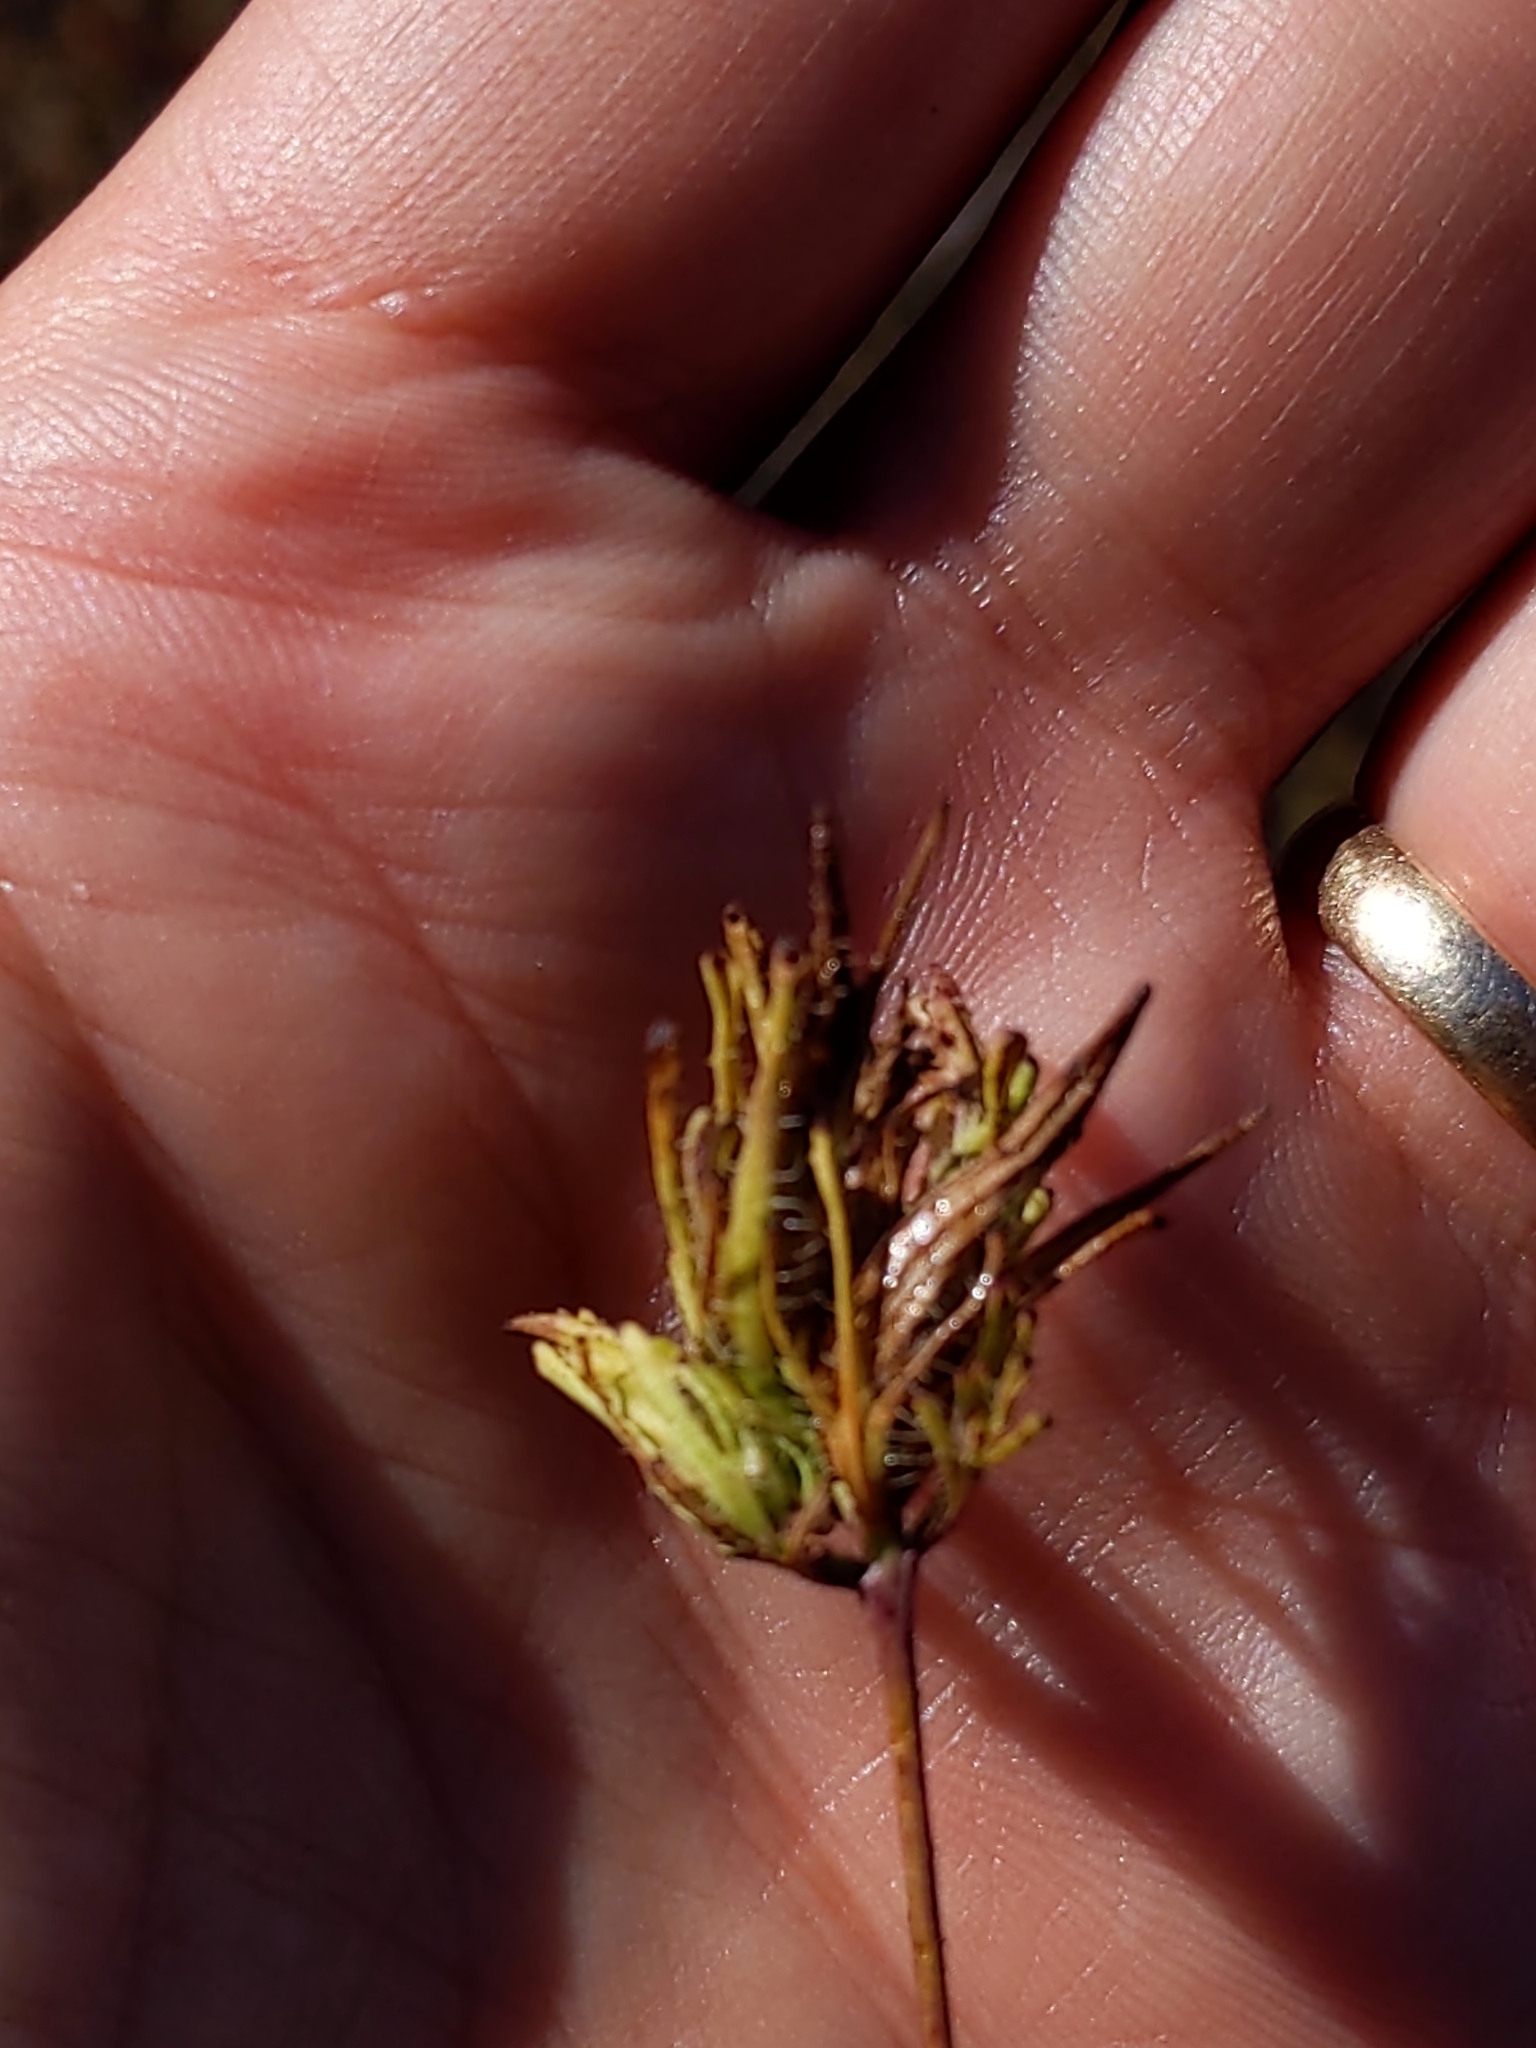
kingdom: Plantae
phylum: Tracheophyta
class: Magnoliopsida
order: Lamiales
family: Orobanchaceae
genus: Cordylanthus
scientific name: Cordylanthus rigidus
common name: Stiff-branch bird's-beak
